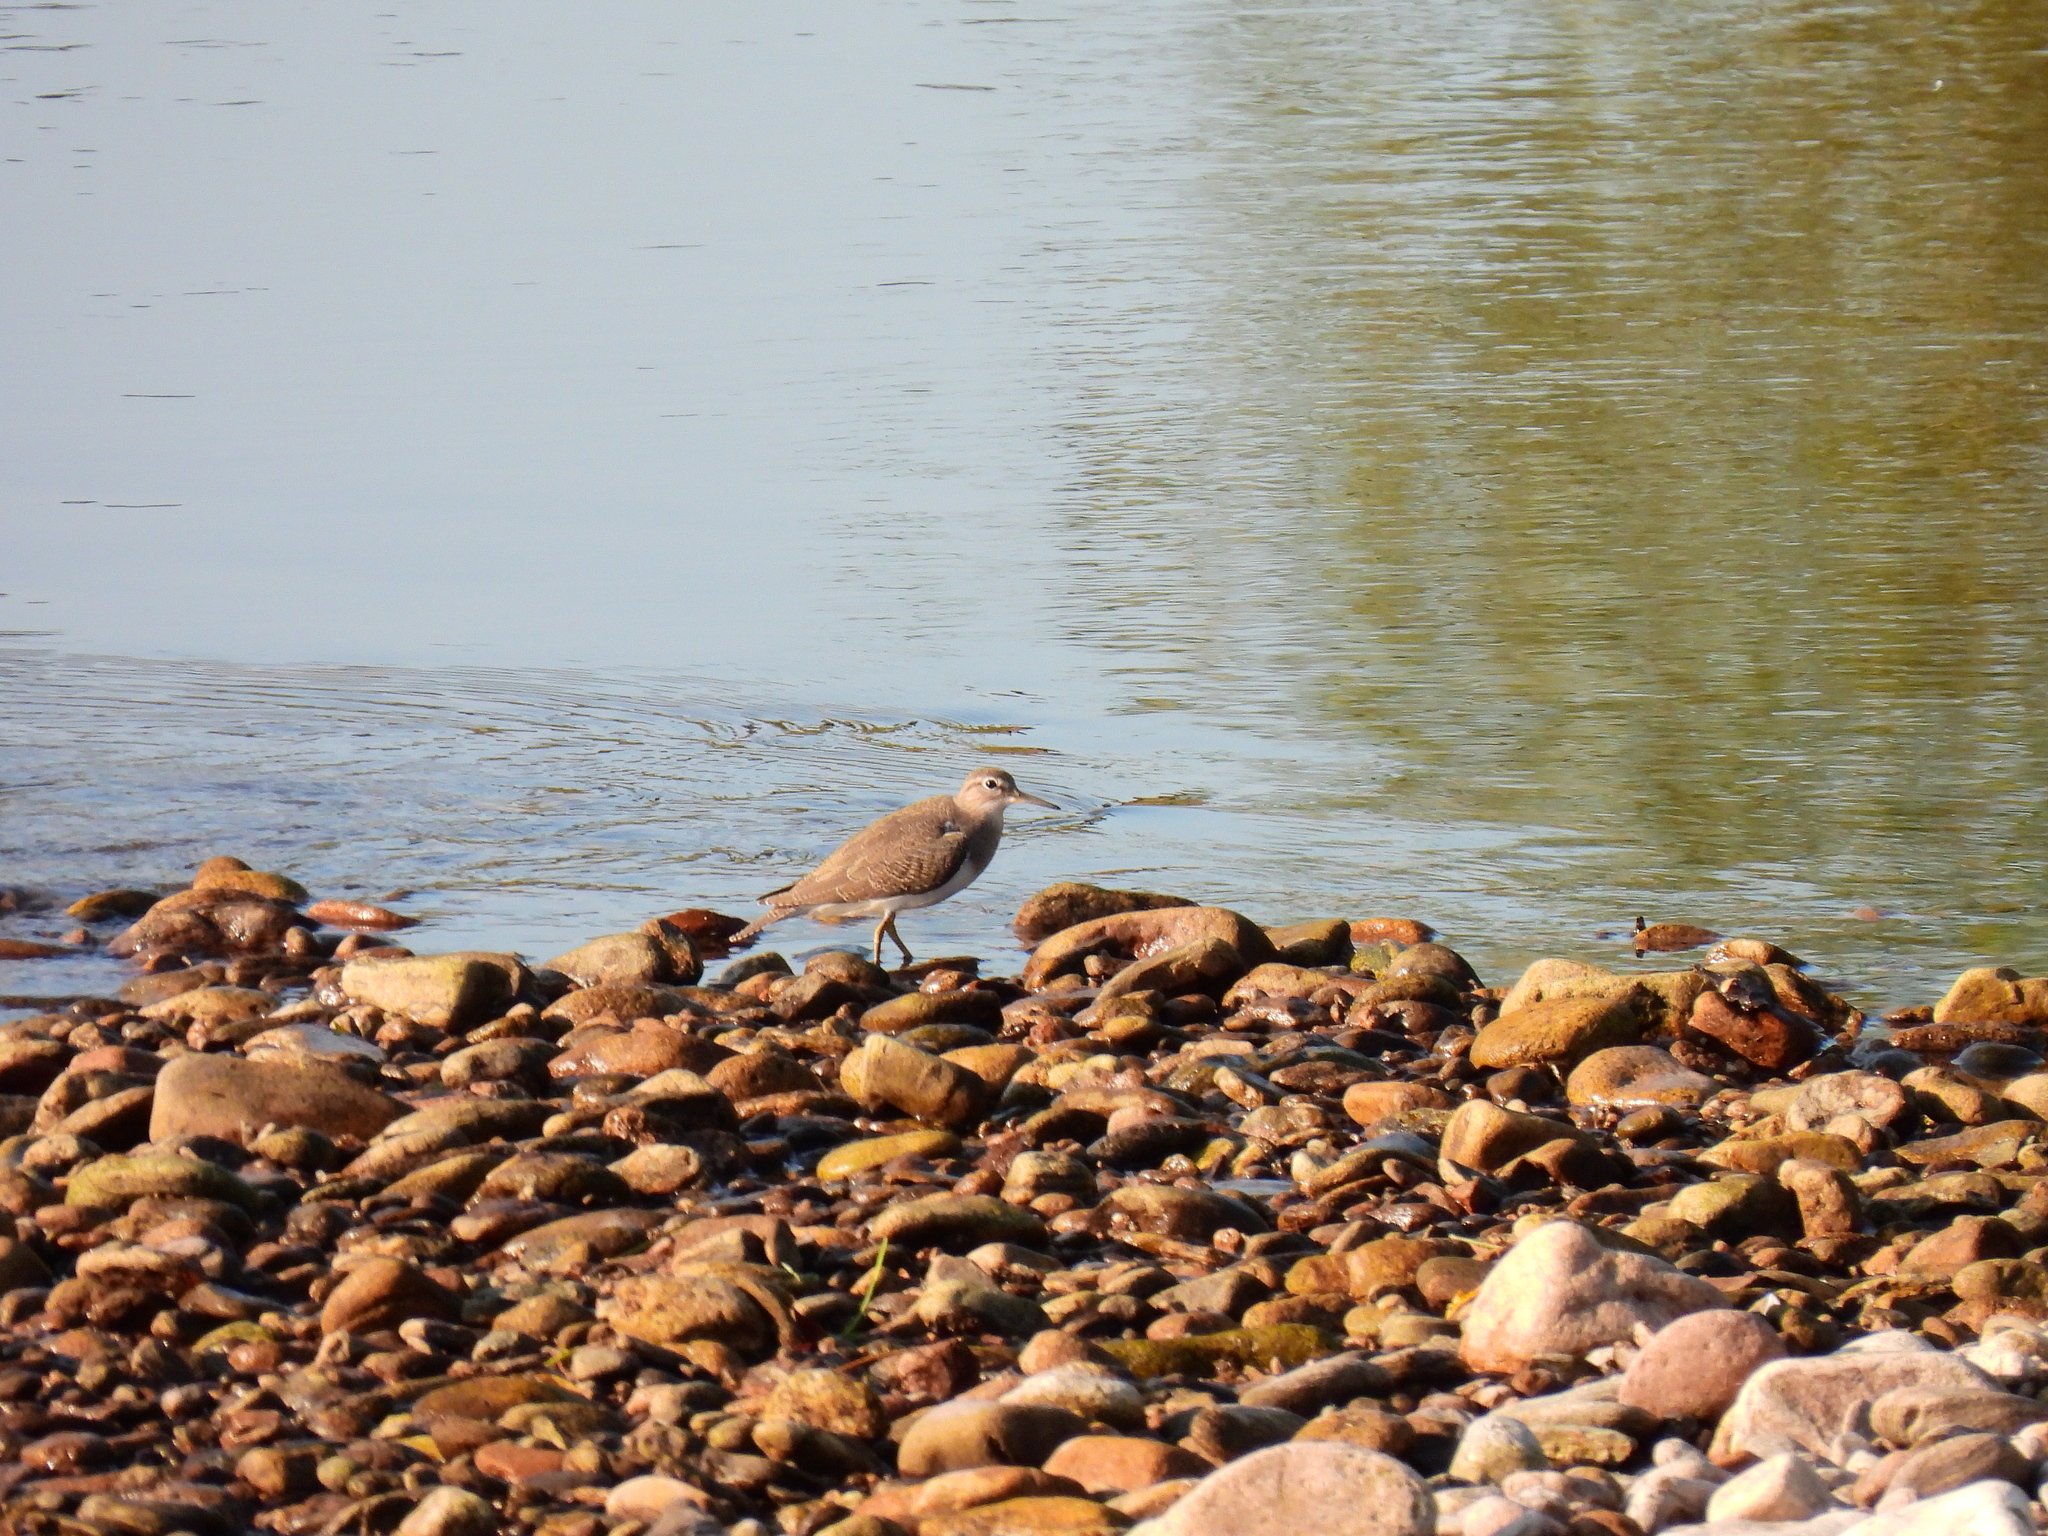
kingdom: Animalia
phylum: Chordata
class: Aves
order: Charadriiformes
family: Scolopacidae
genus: Actitis
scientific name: Actitis hypoleucos
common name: Common sandpiper
